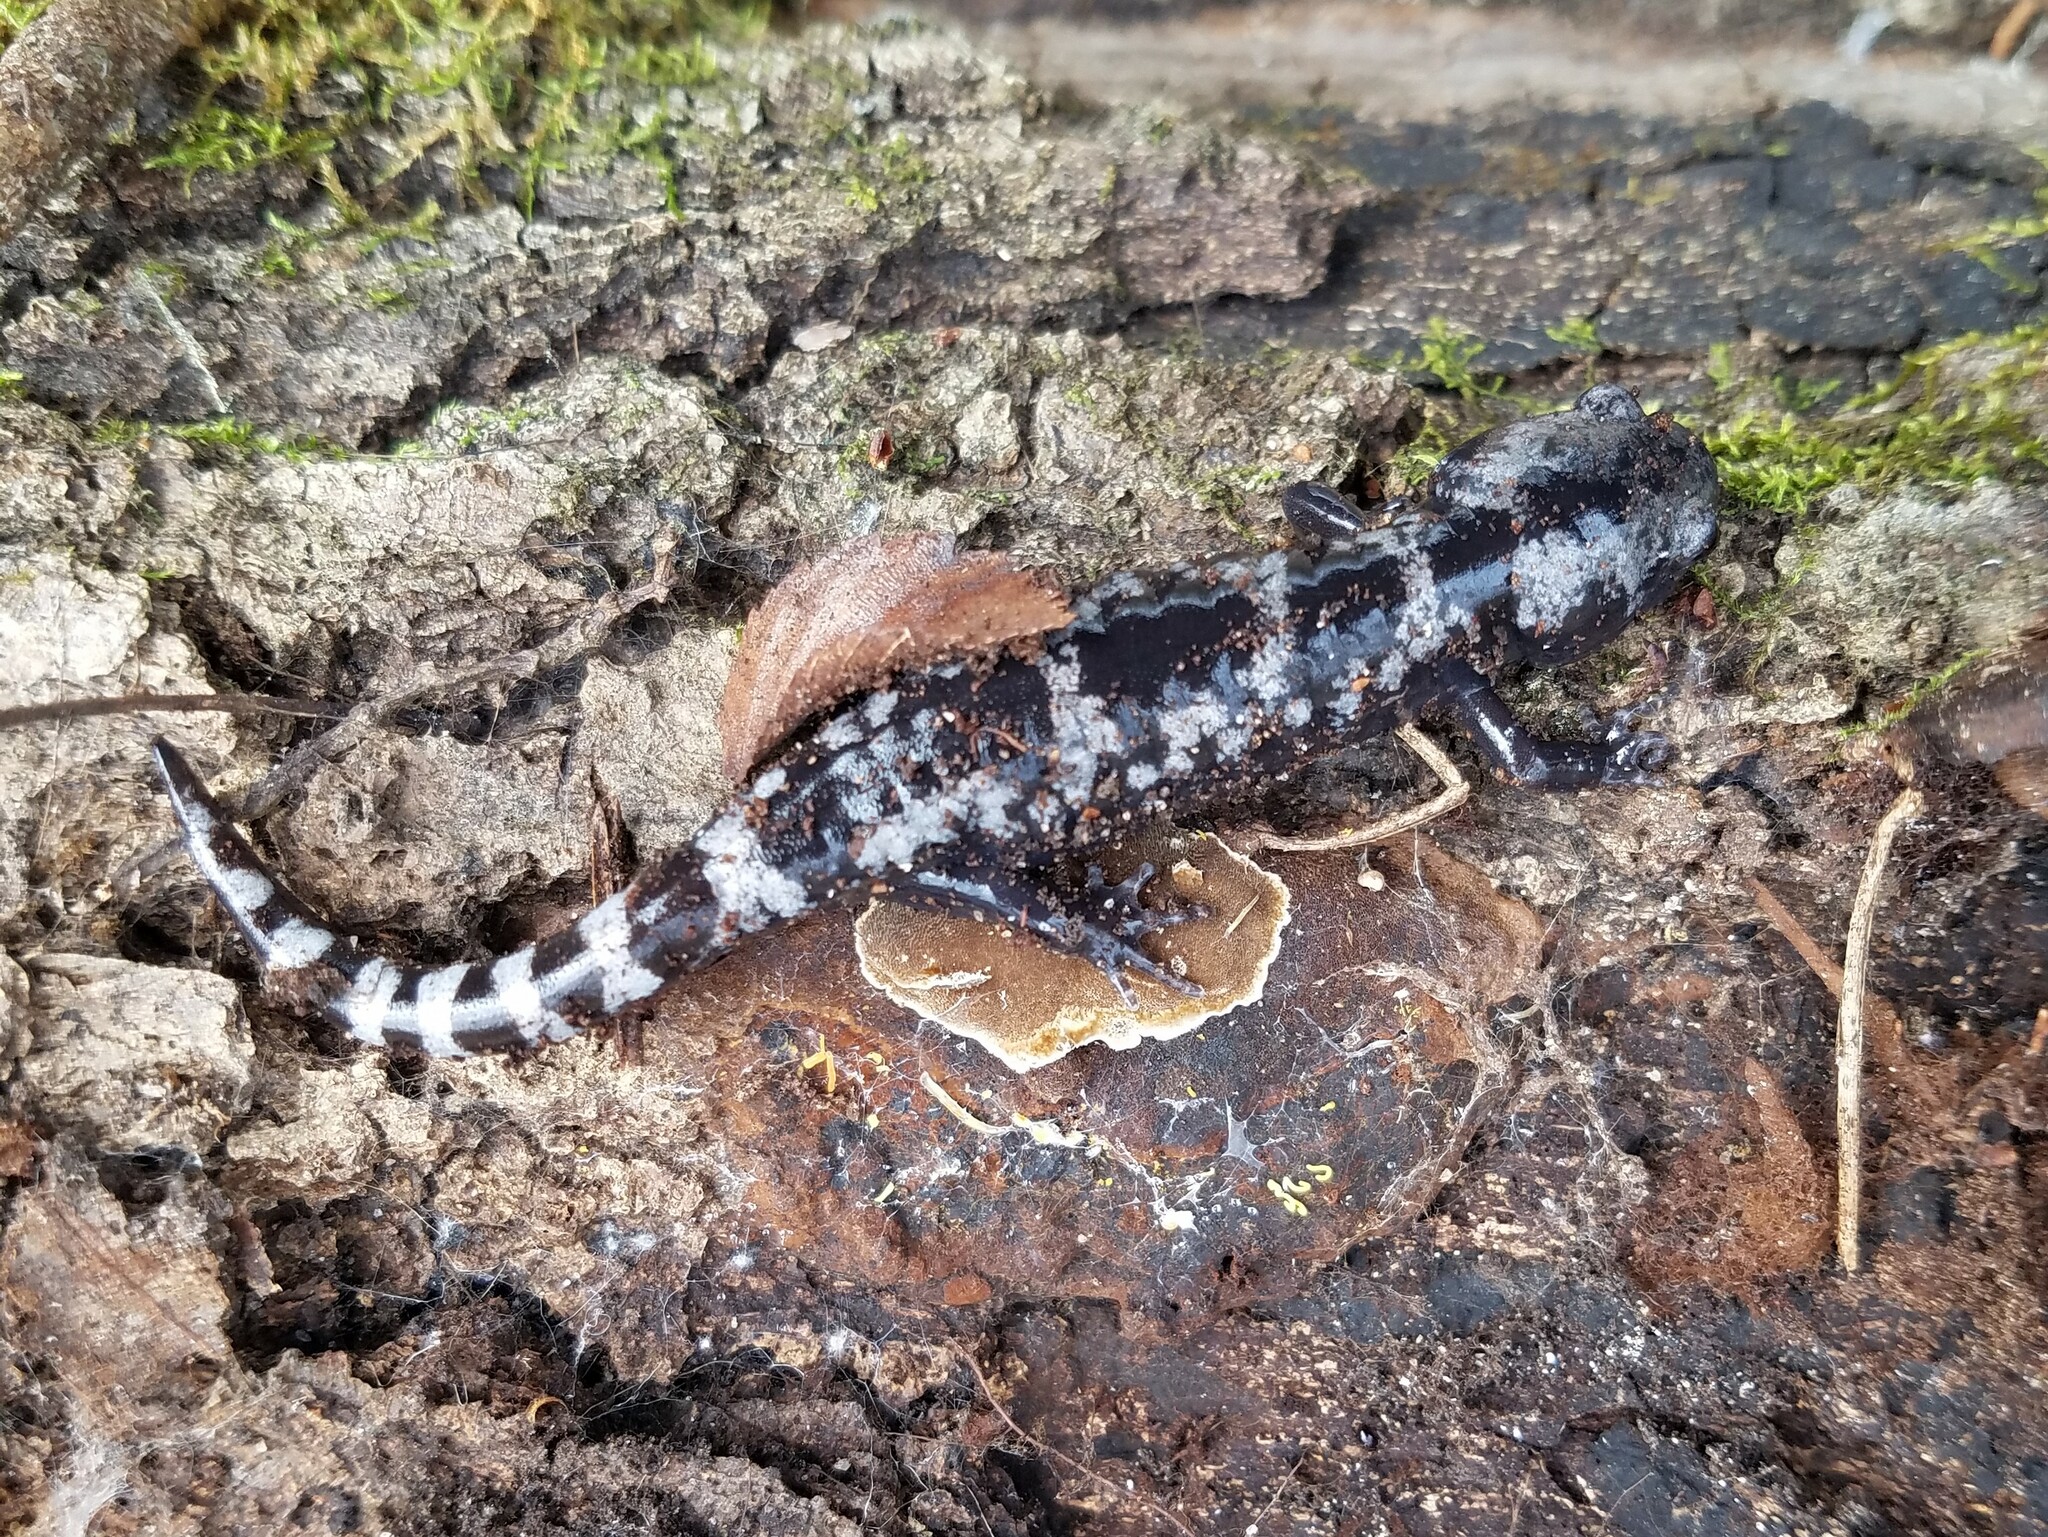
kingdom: Animalia
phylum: Chordata
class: Amphibia
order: Caudata
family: Ambystomatidae
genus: Ambystoma
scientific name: Ambystoma opacum
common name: Marbled salamander
